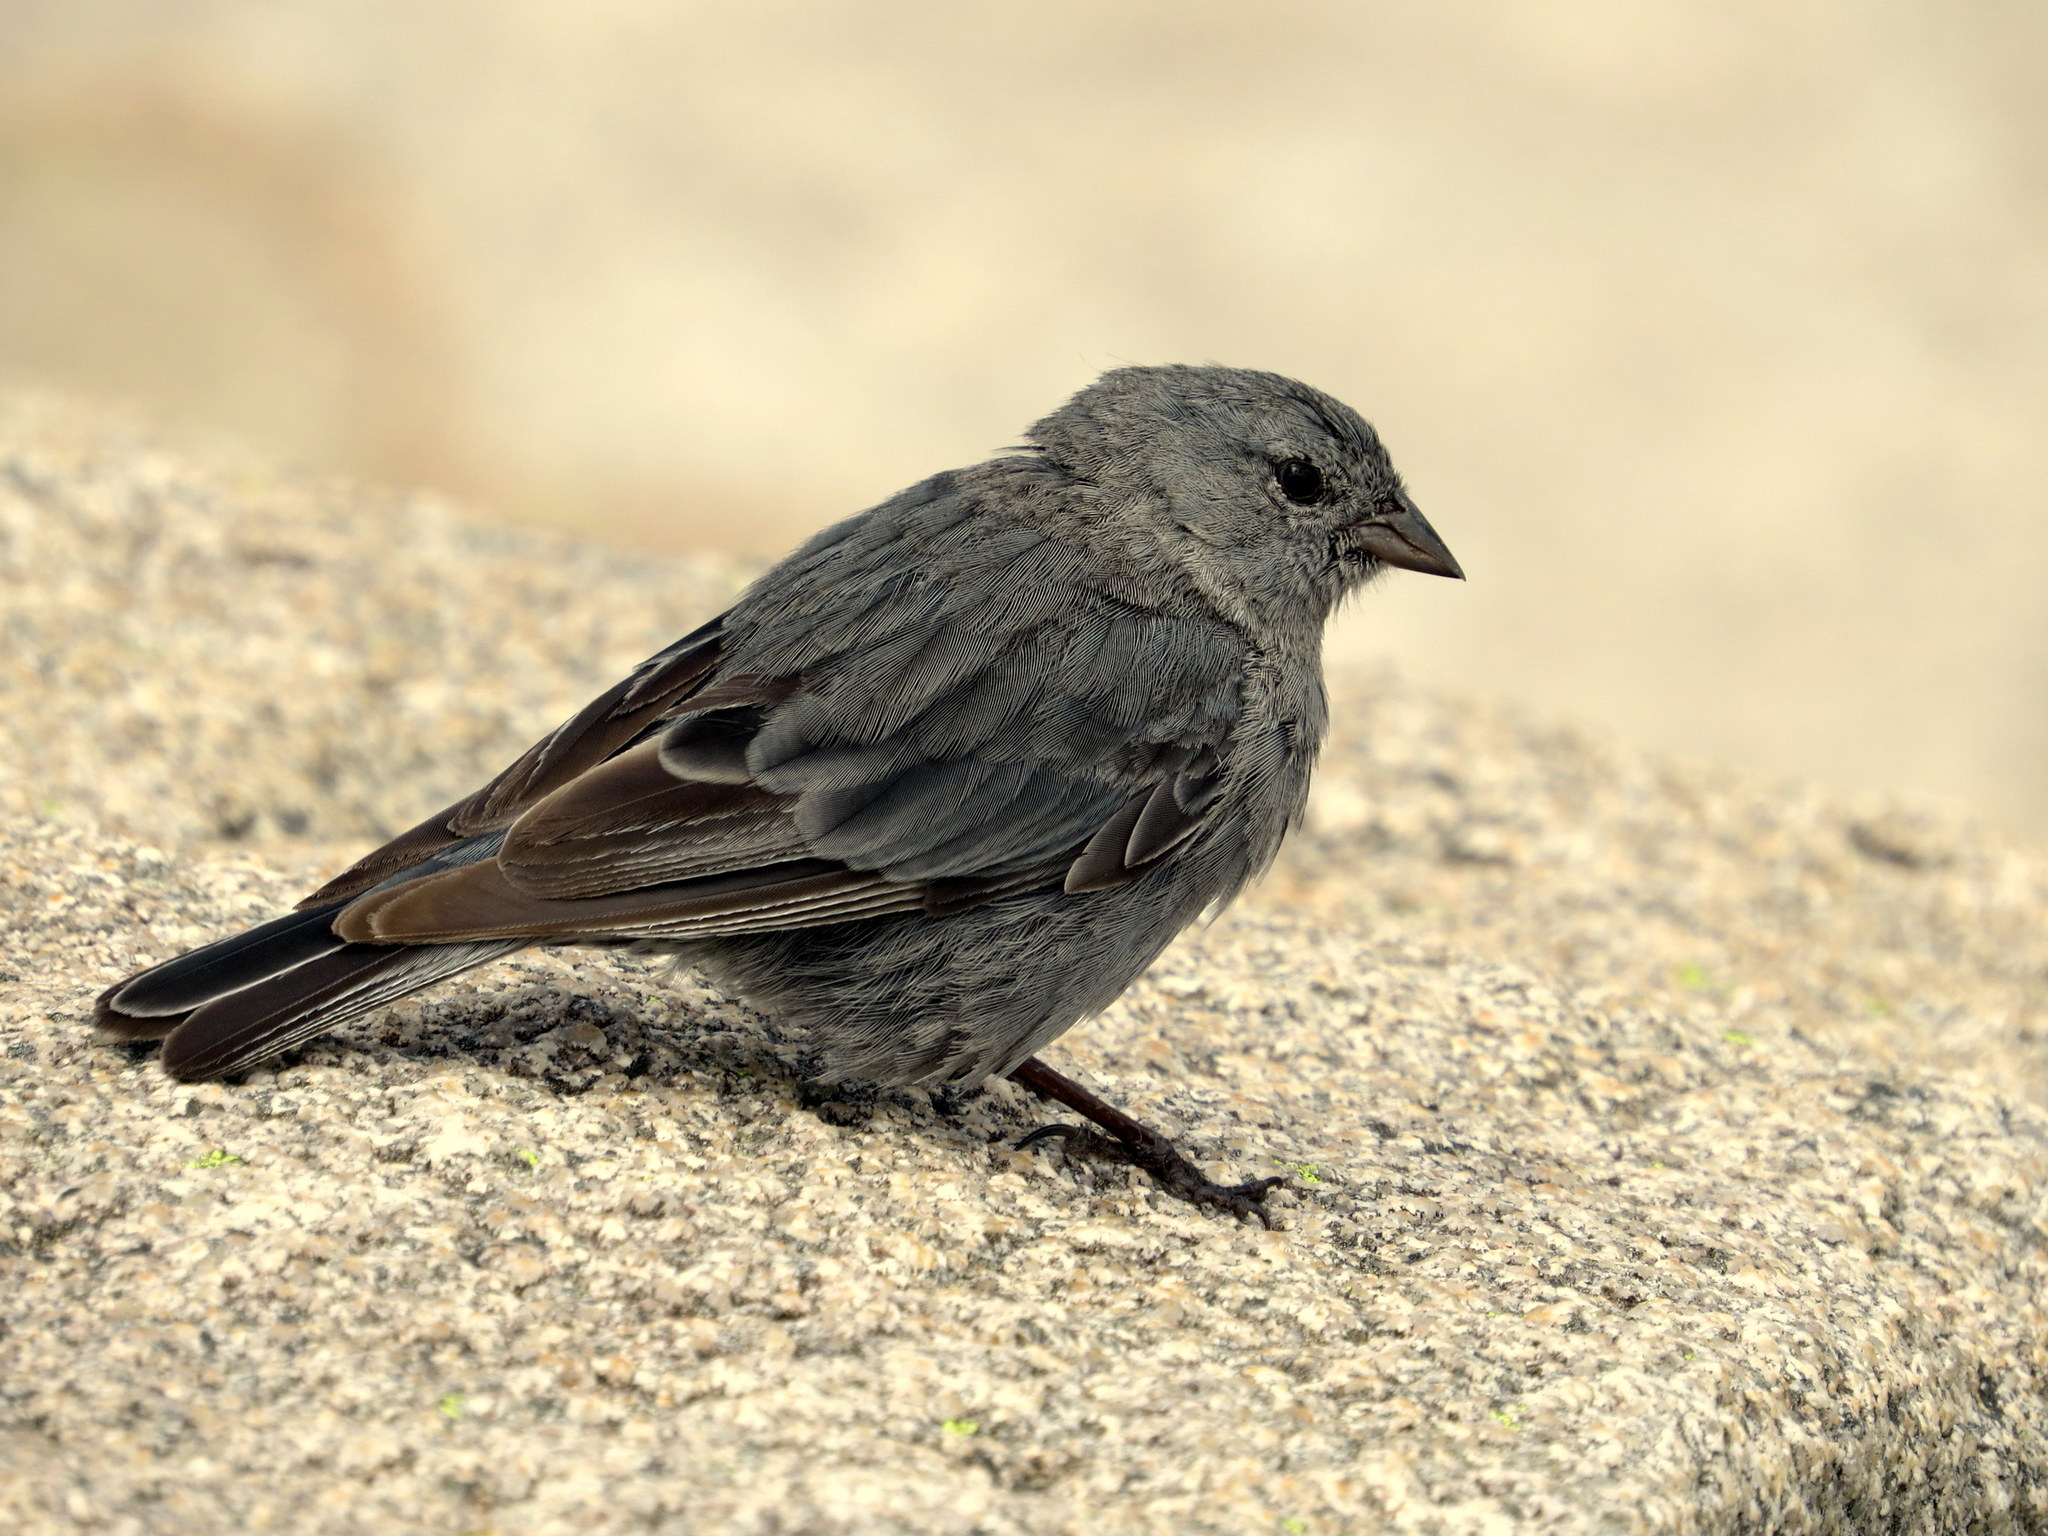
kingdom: Animalia
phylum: Chordata
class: Aves
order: Passeriformes
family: Thraupidae
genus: Geospizopsis
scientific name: Geospizopsis unicolor
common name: Plumbeous sierra-finch
